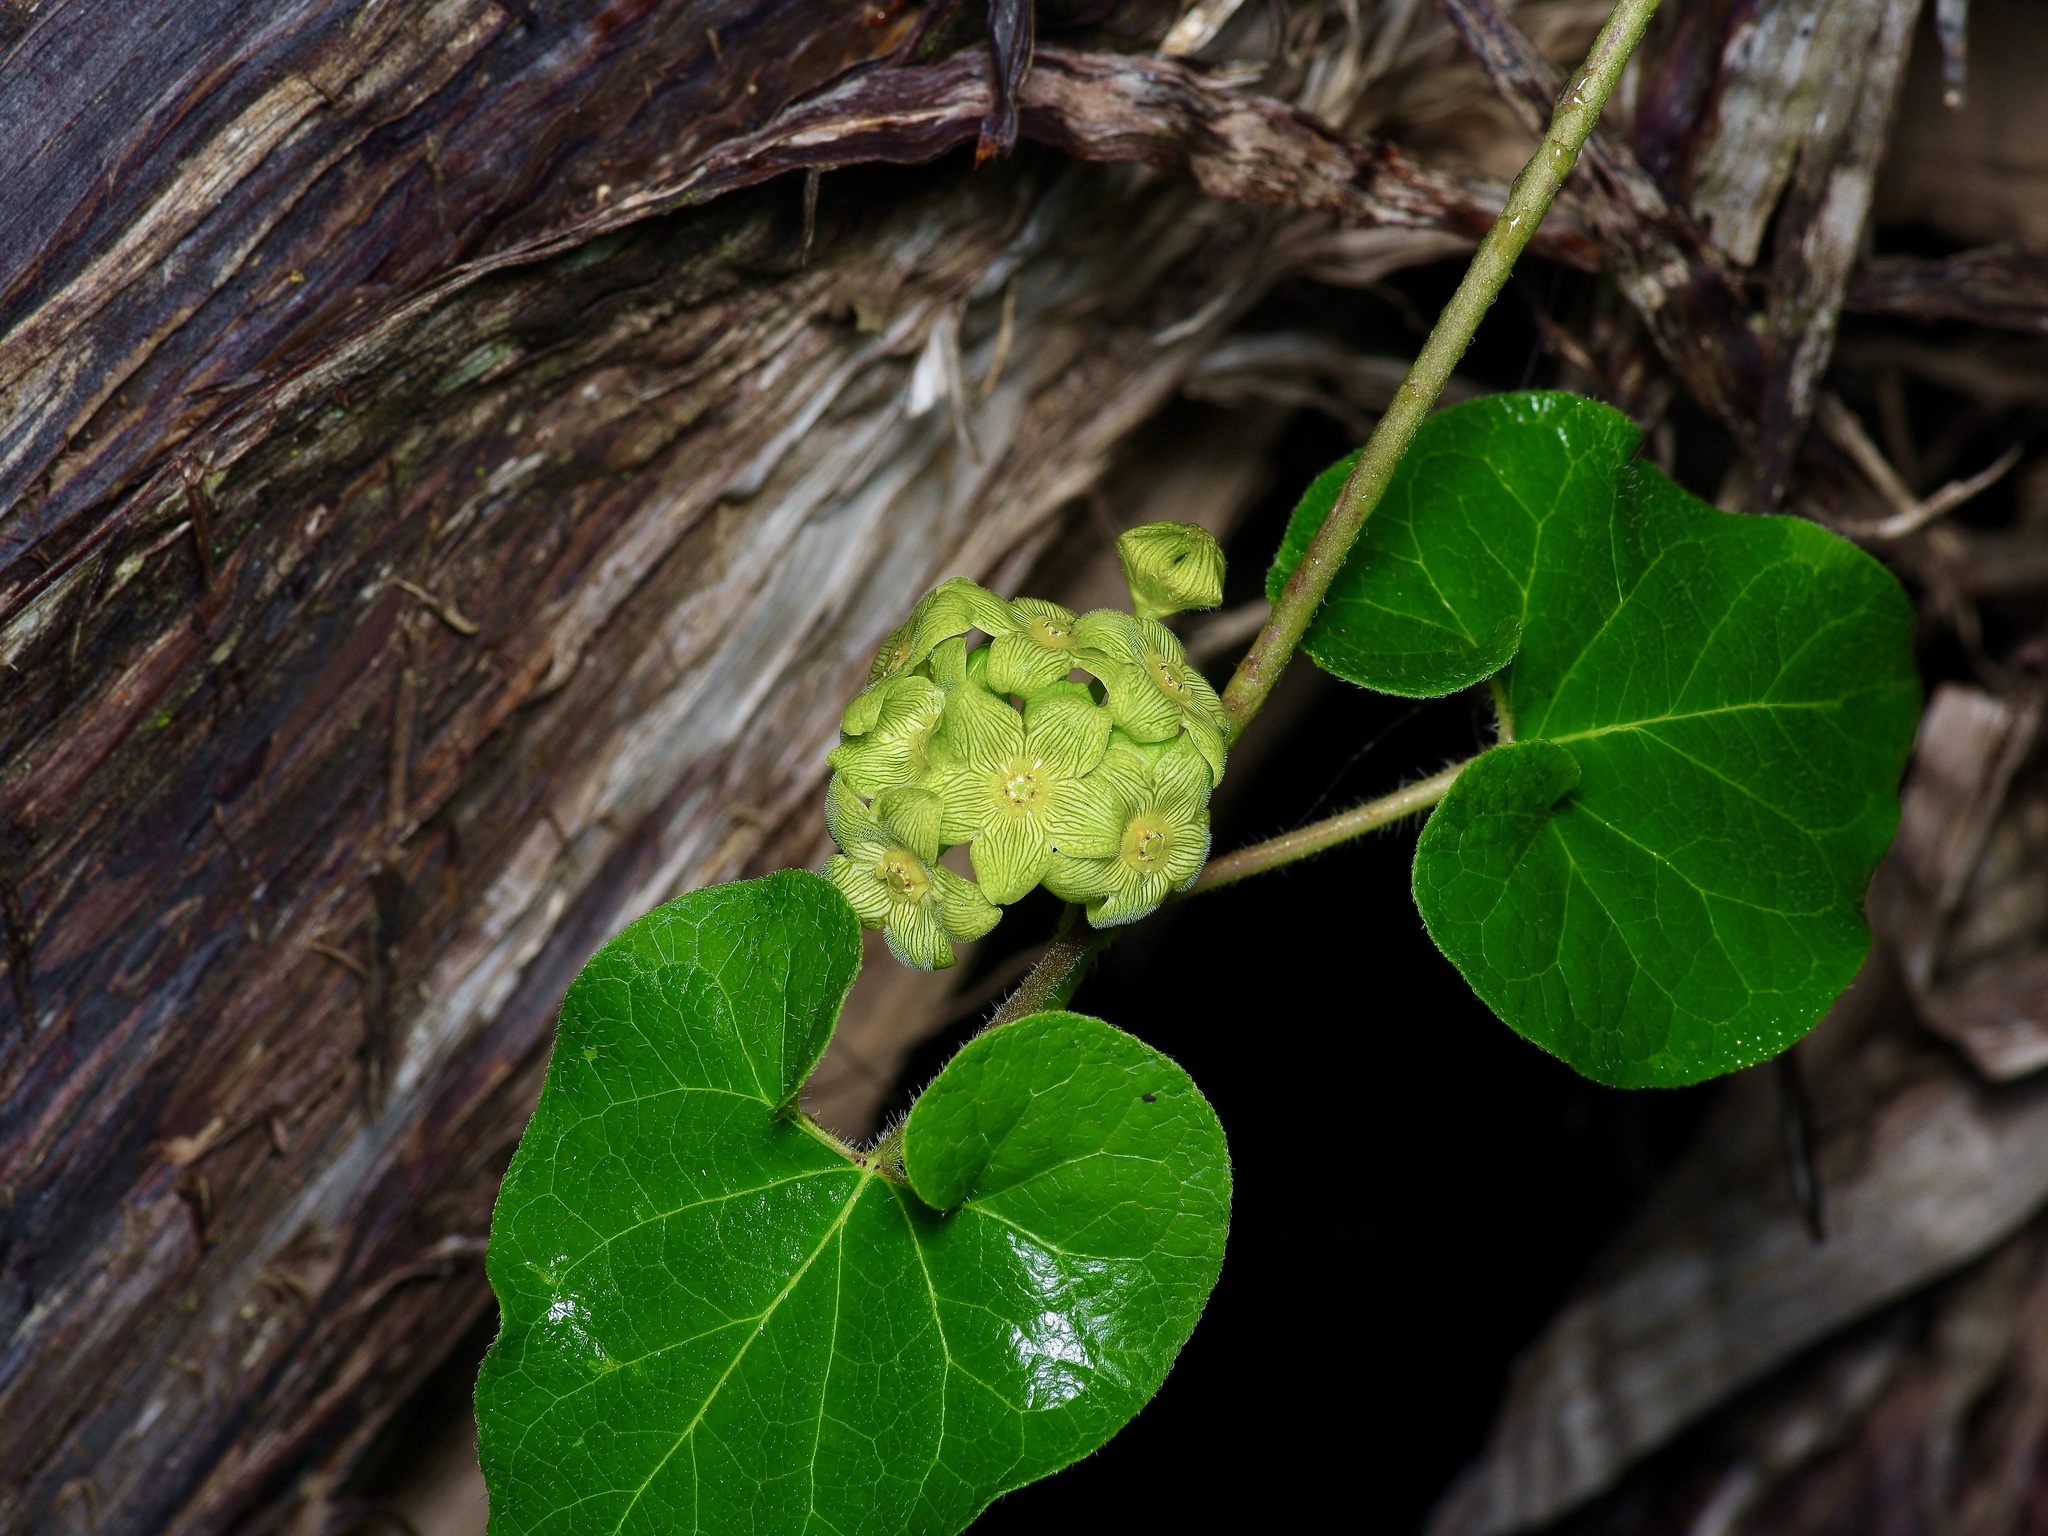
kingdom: Plantae
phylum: Tracheophyta
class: Magnoliopsida
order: Gentianales
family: Apocynaceae
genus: Matelea
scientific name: Matelea edwardsensis
